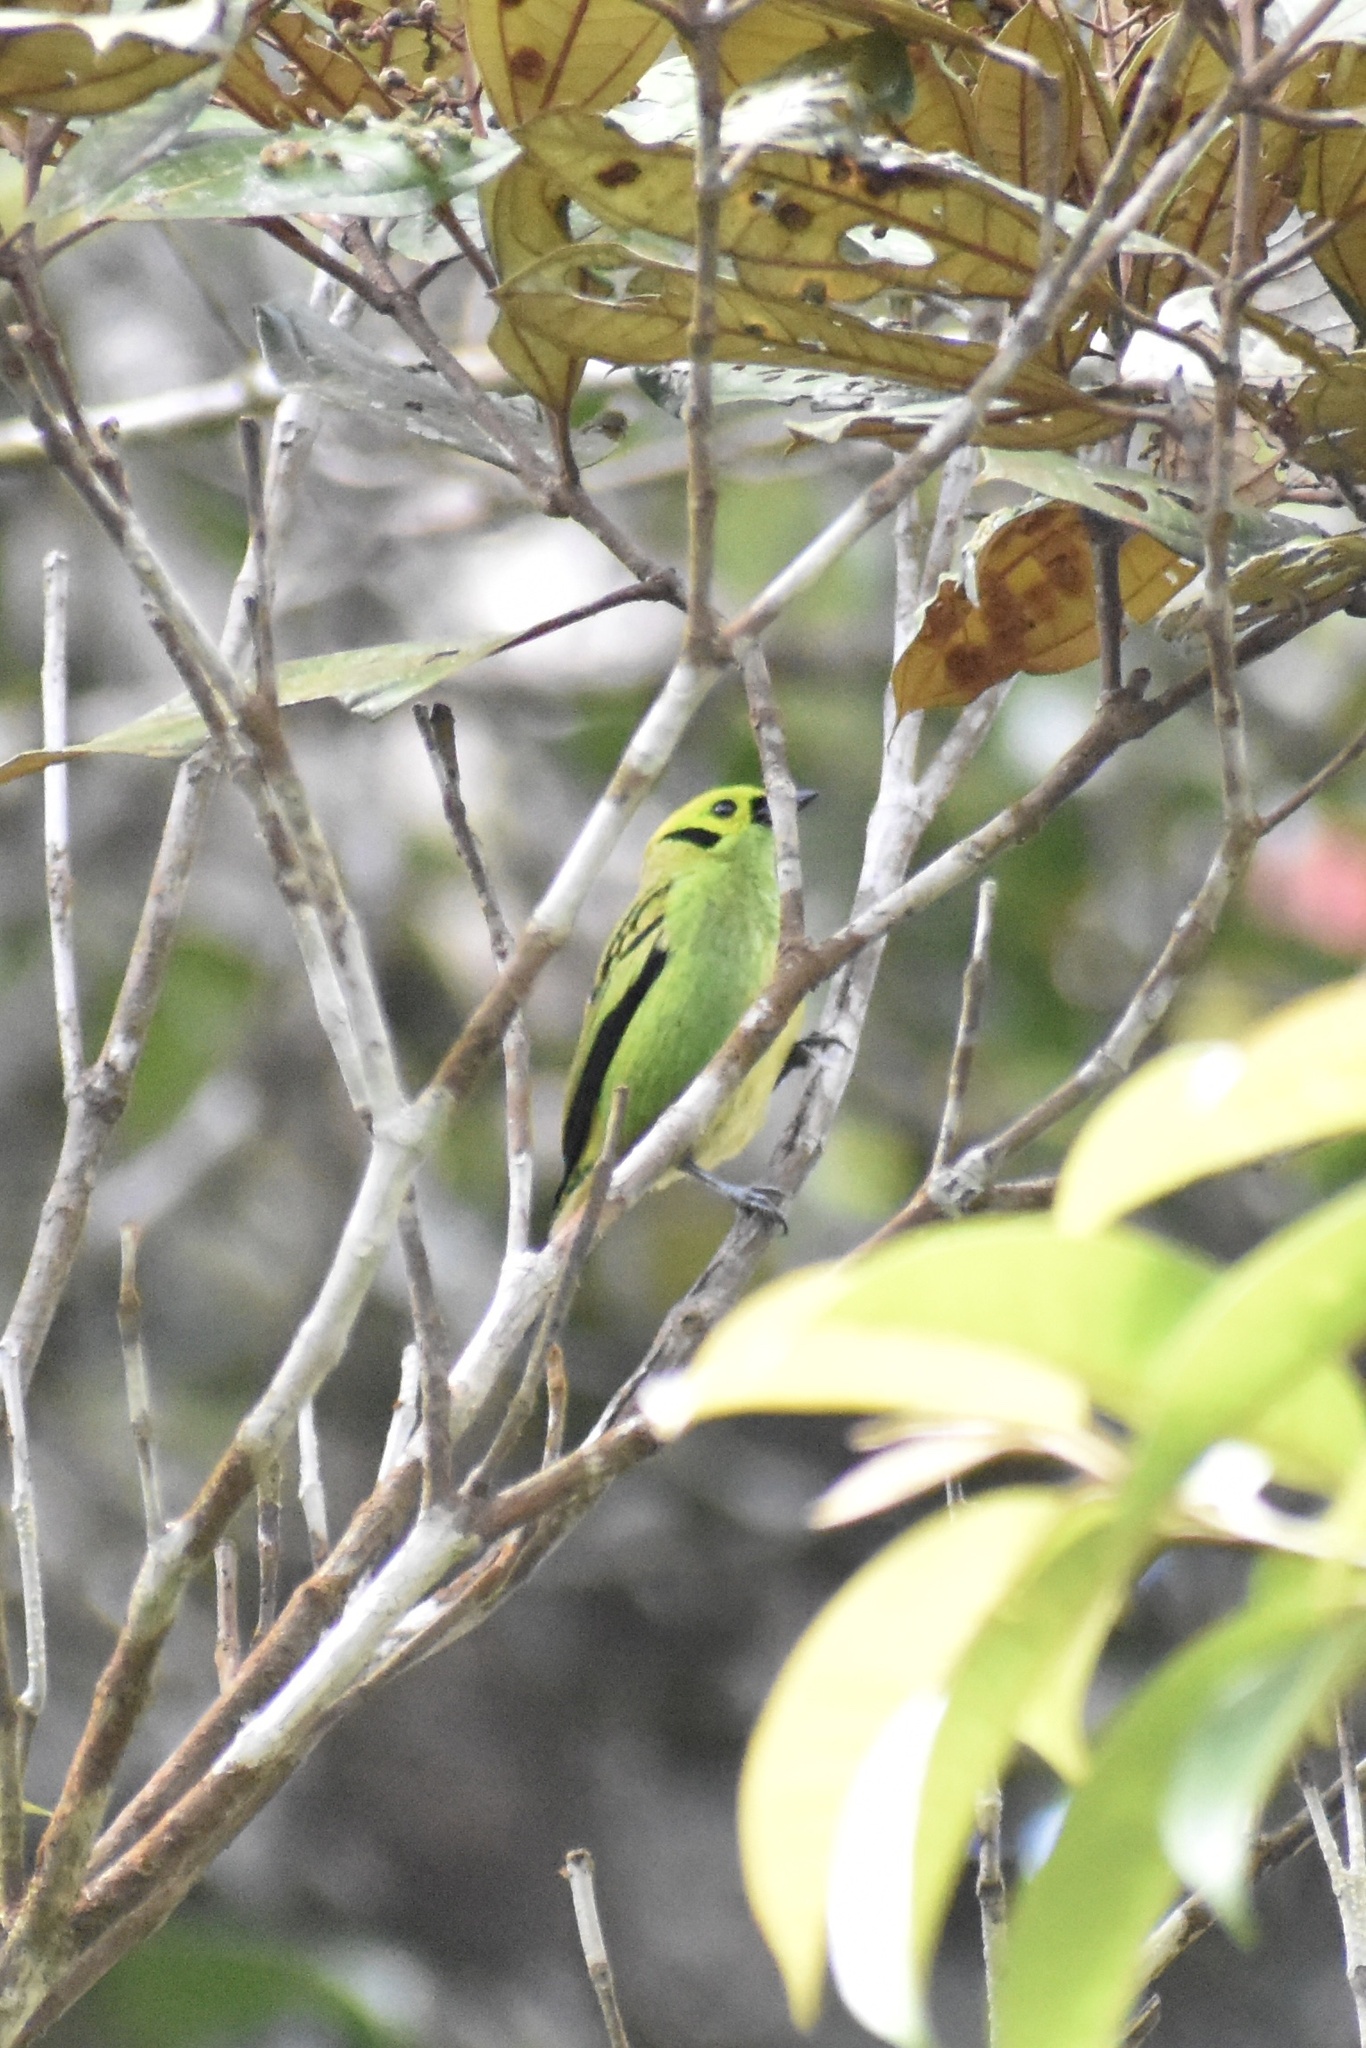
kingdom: Animalia
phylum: Chordata
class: Aves
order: Passeriformes
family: Thraupidae
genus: Tangara
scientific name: Tangara florida
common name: Emerald tanager
